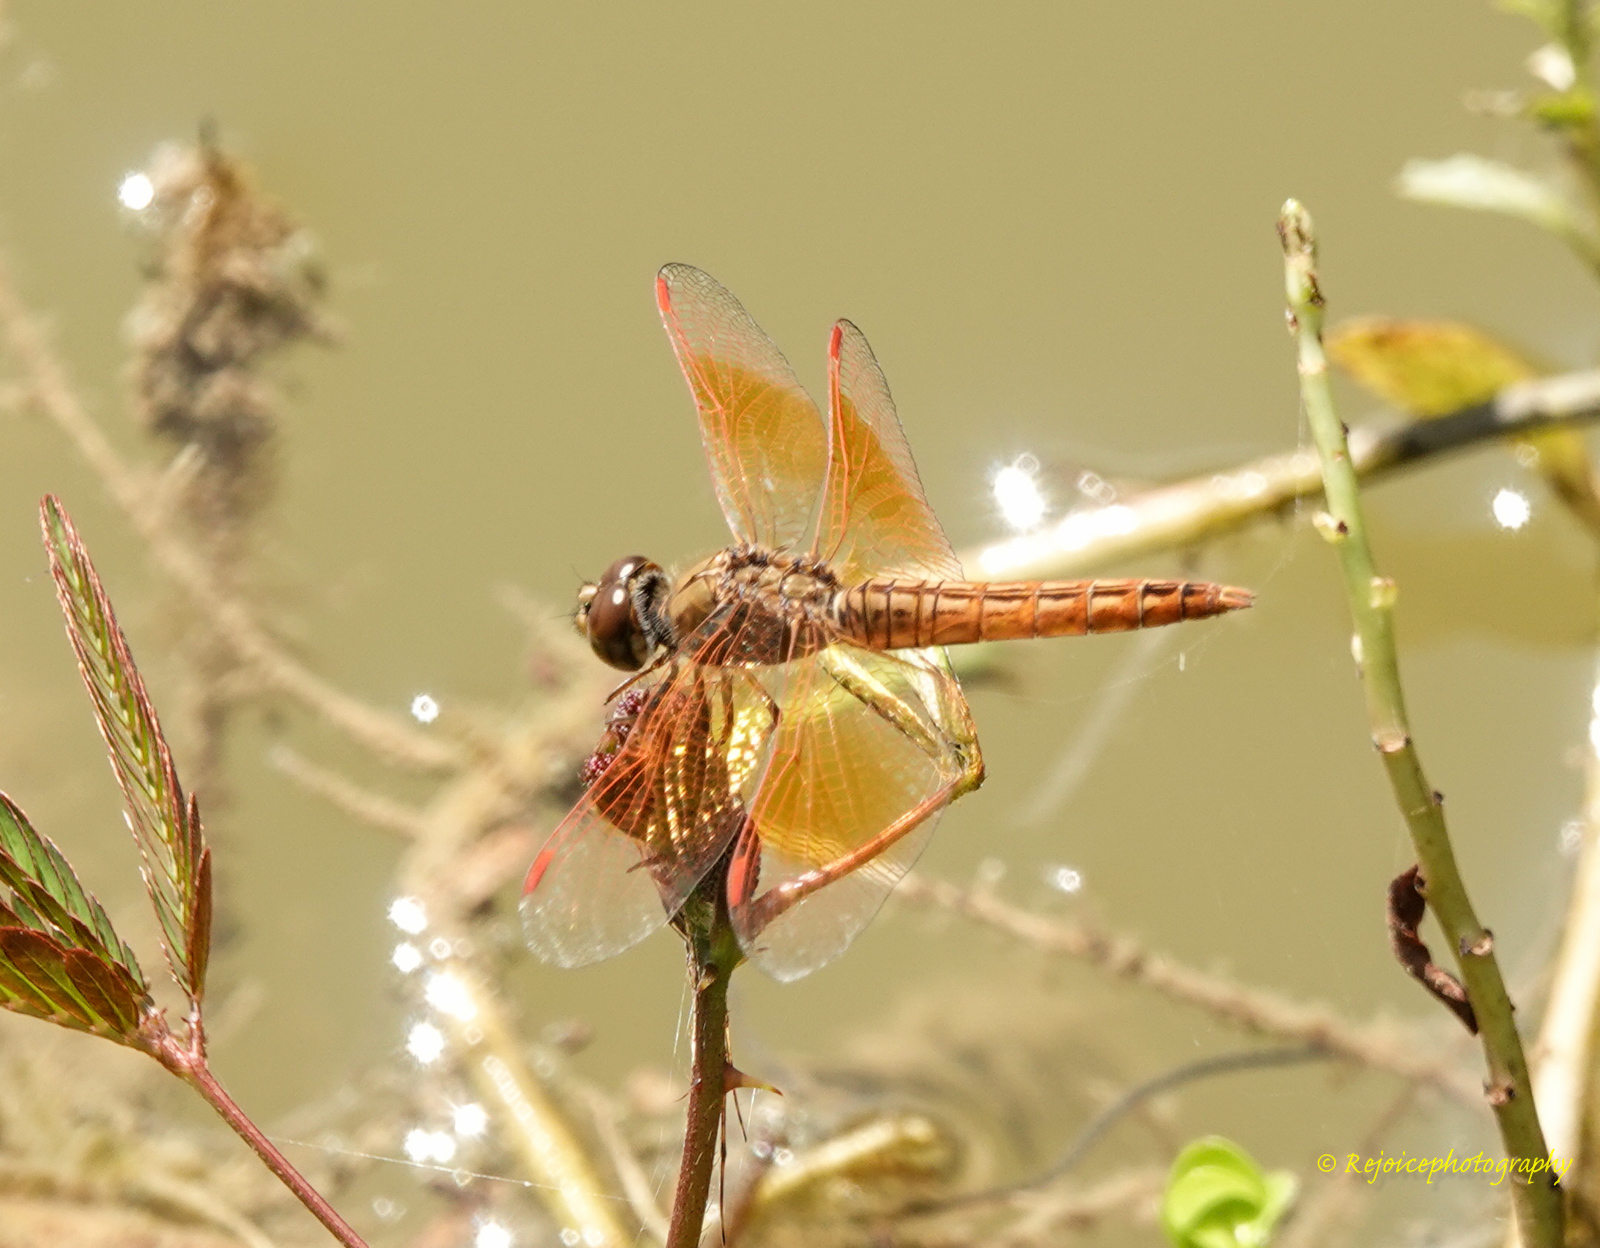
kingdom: Animalia
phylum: Arthropoda
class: Insecta
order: Odonata
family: Libellulidae
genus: Brachythemis
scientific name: Brachythemis contaminata
